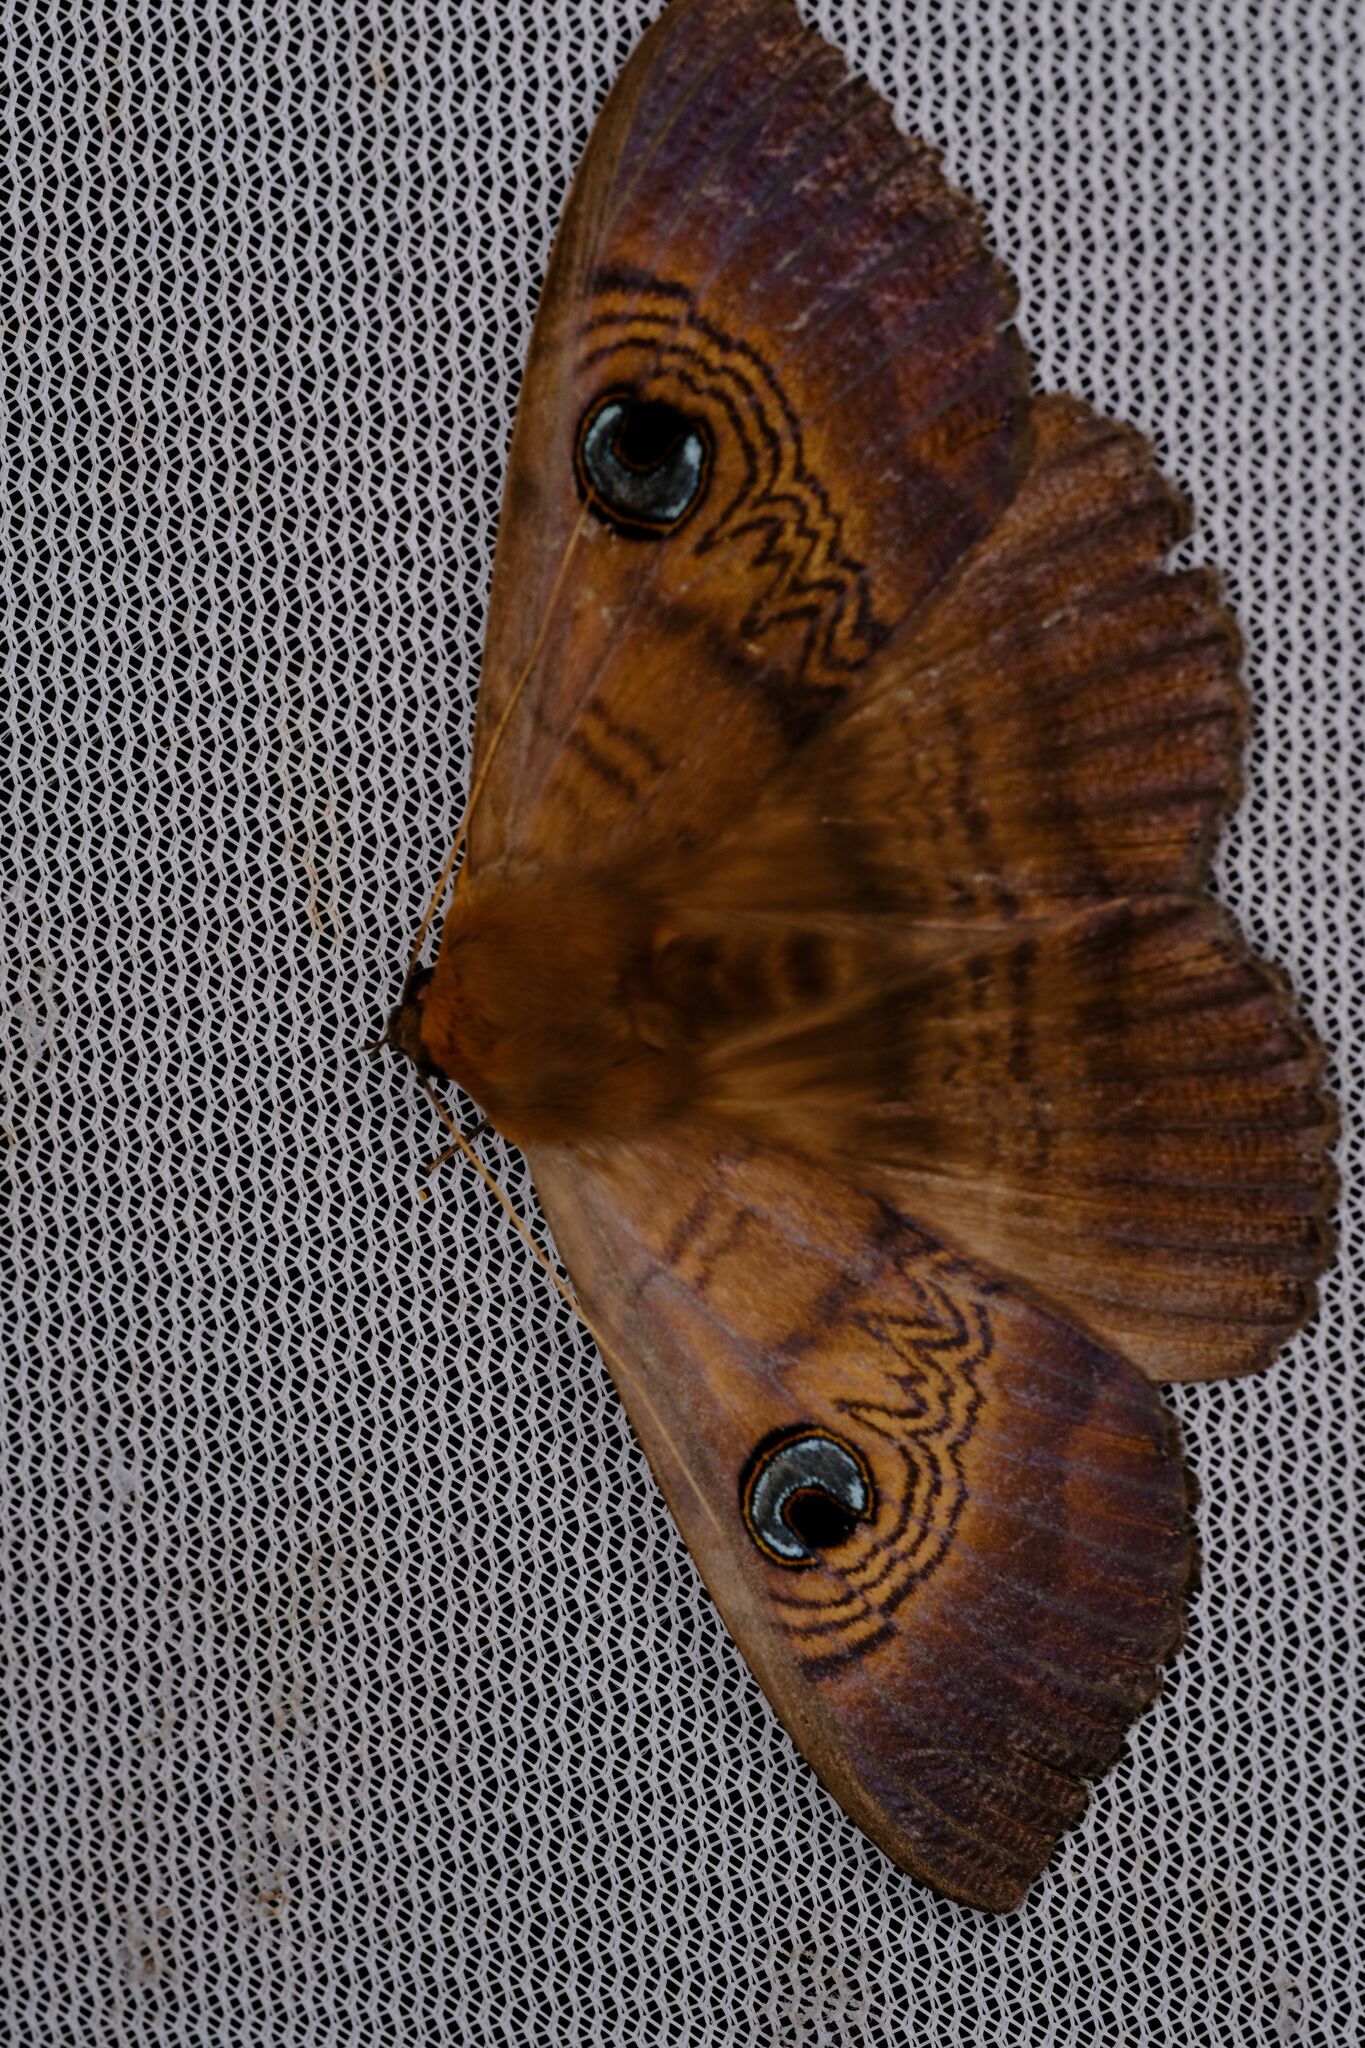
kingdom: Animalia
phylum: Arthropoda
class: Insecta
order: Lepidoptera
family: Erebidae
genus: Dasypodia
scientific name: Dasypodia selenophora
